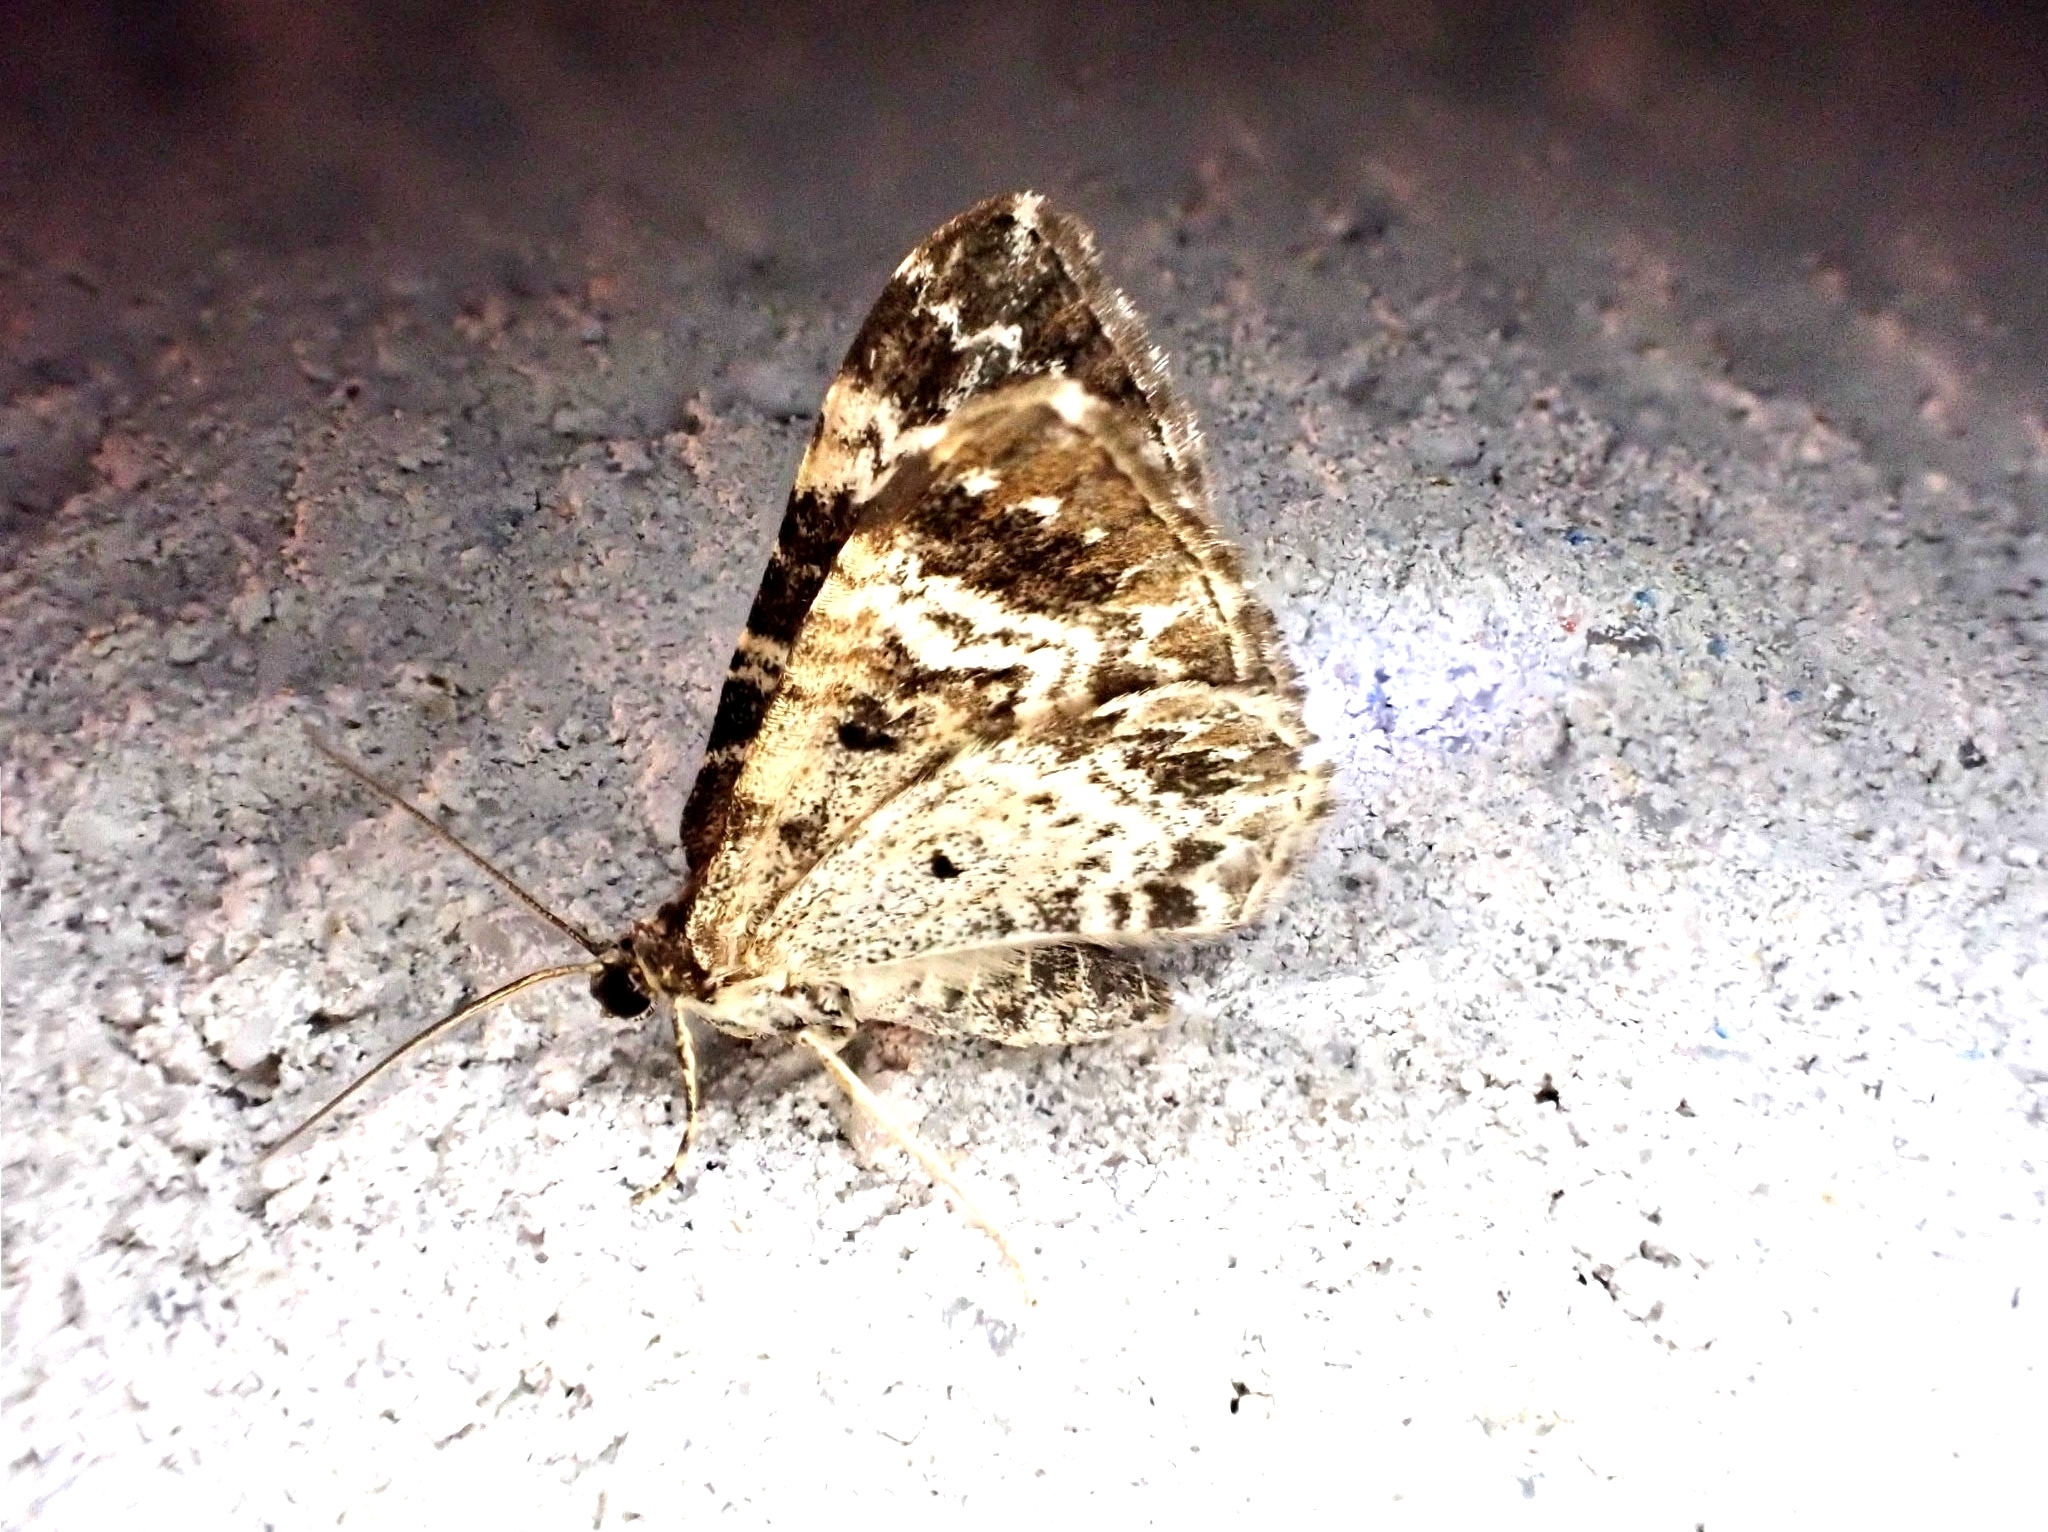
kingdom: Animalia
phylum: Arthropoda
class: Insecta
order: Lepidoptera
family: Geometridae
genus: Epirrhoe
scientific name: Epirrhoe alternata
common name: Common carpet
